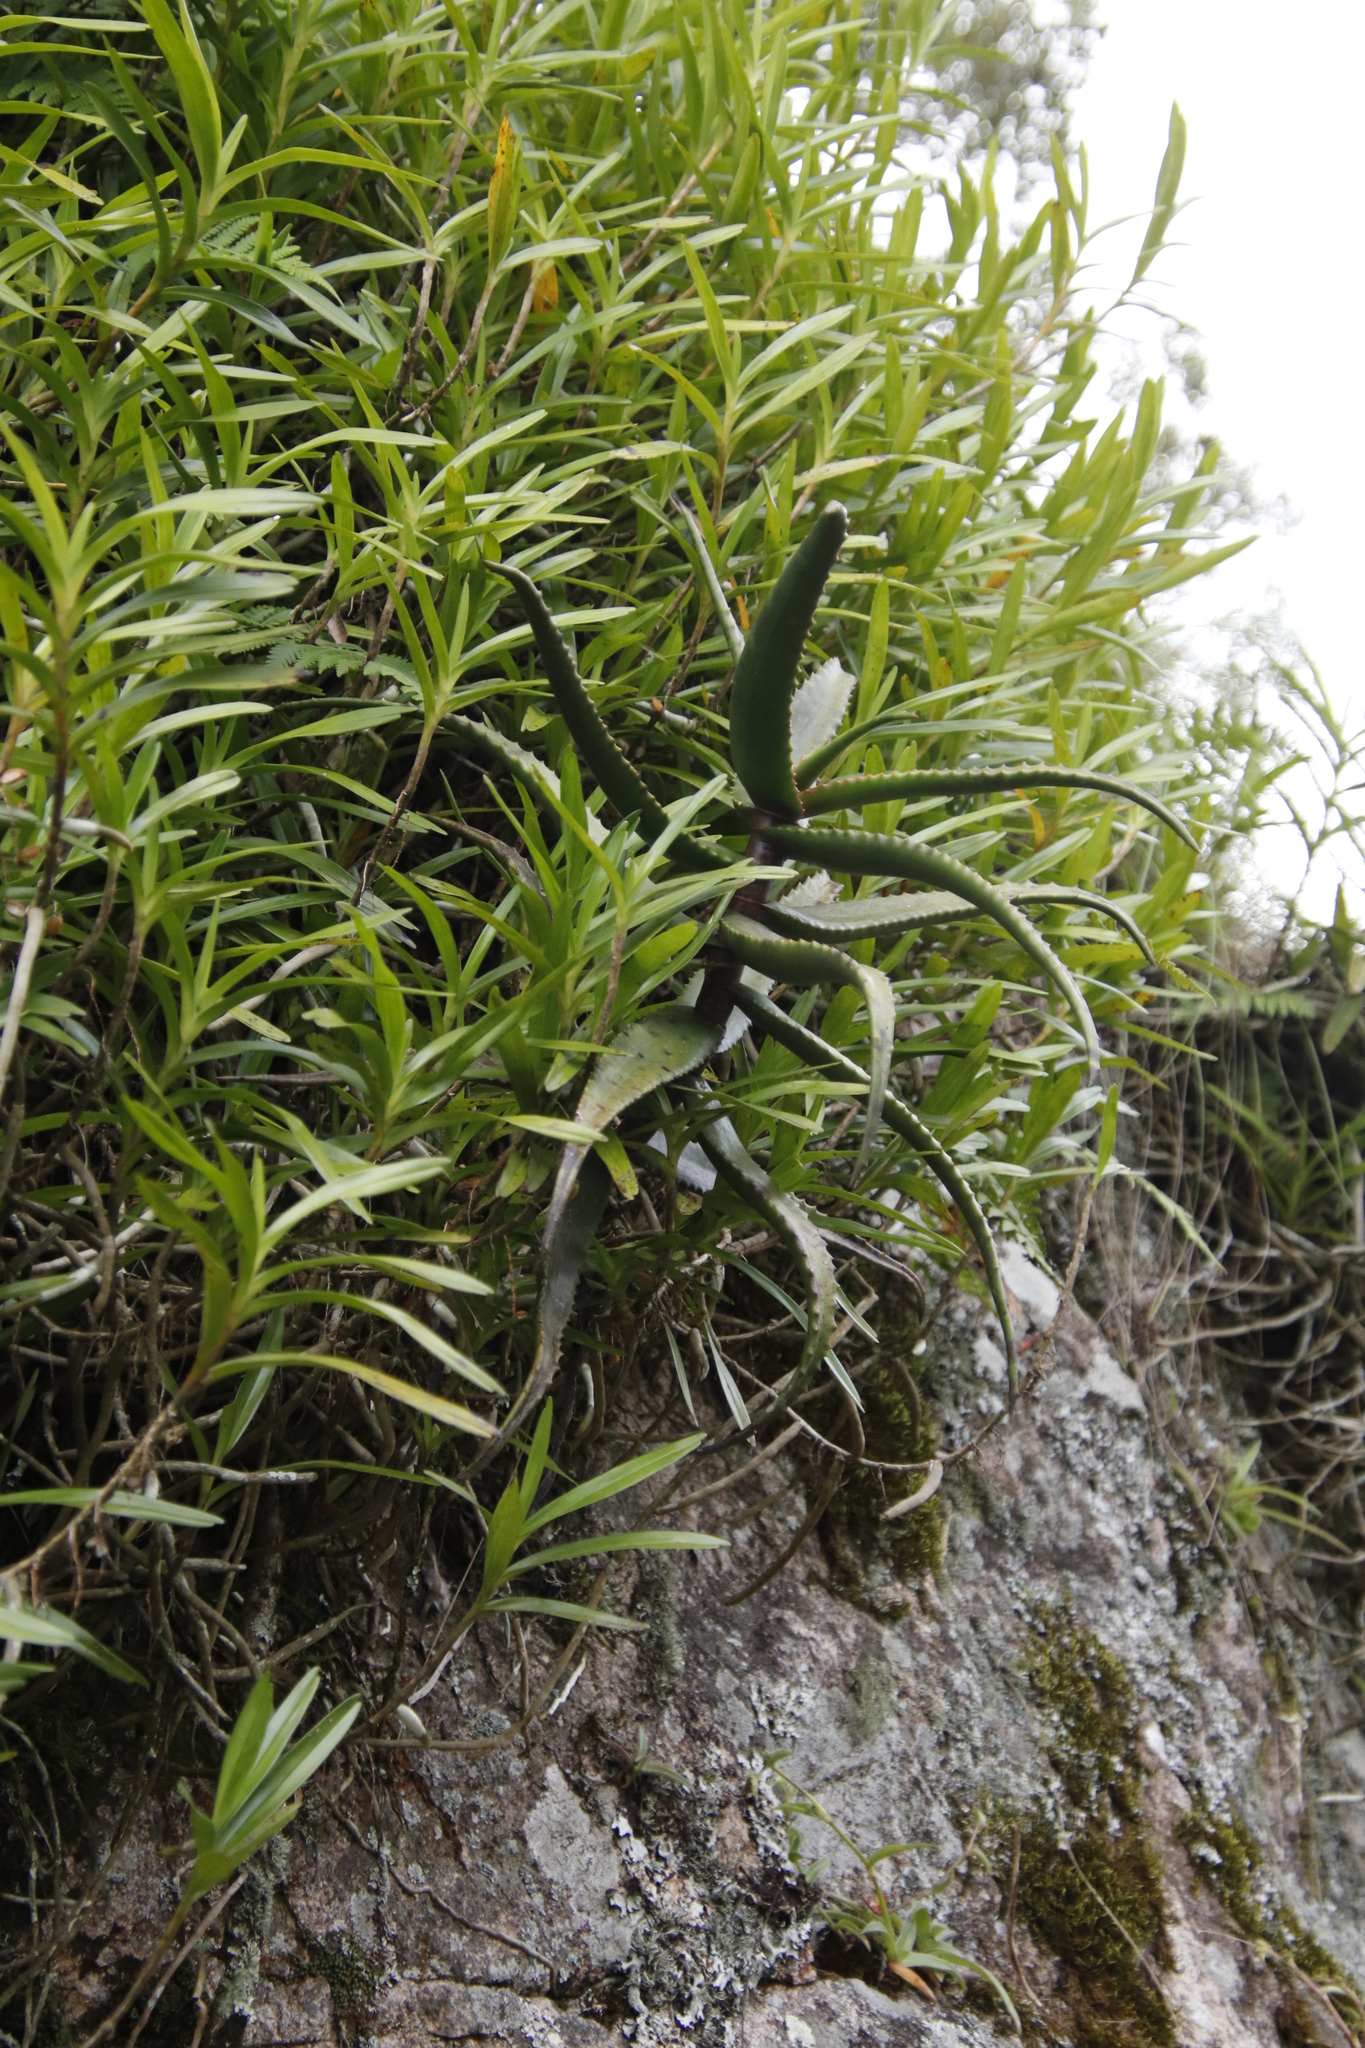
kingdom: Plantae
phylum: Tracheophyta
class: Liliopsida
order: Asparagales
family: Asphodelaceae
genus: Aloe
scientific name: Aloe arborescens
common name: Candelabra aloe
